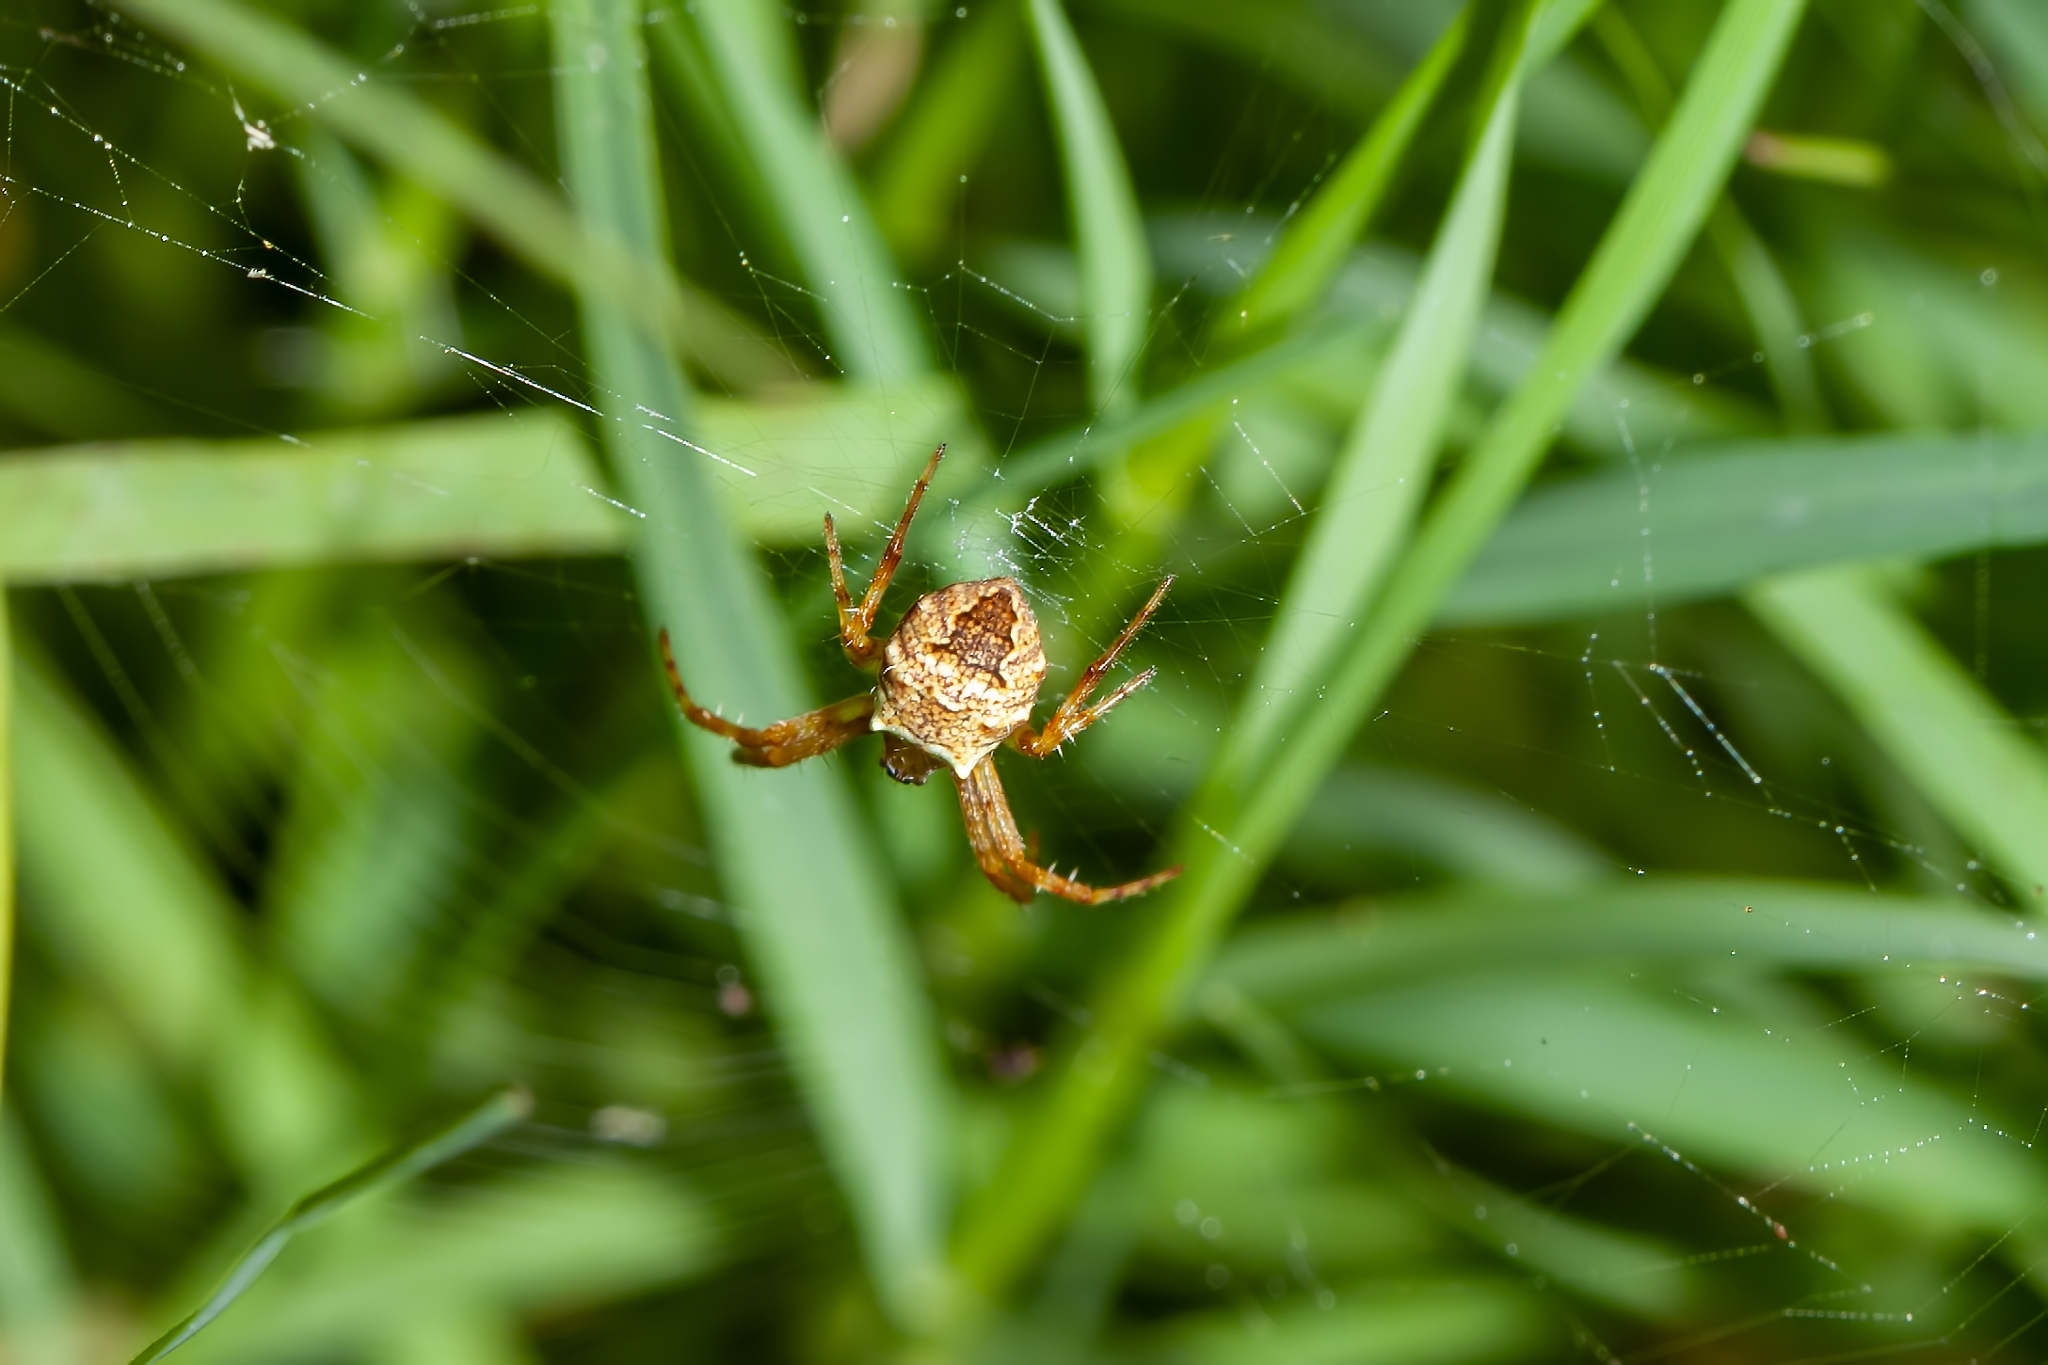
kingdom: Animalia
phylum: Arthropoda
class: Arachnida
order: Araneae
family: Araneidae
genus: Gea
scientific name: Gea heptagon
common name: Orb weavers
